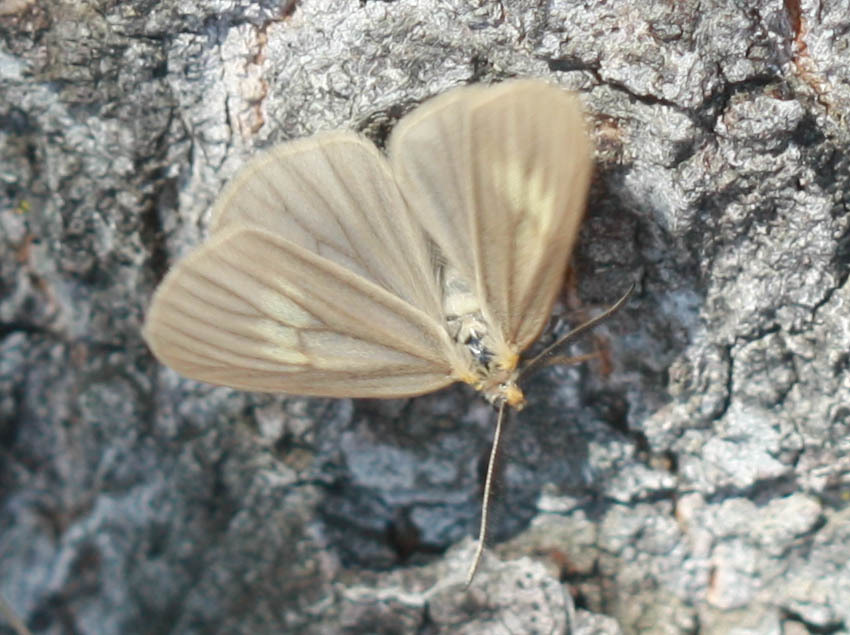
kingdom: Animalia
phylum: Arthropoda
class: Insecta
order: Lepidoptera
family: Notodontidae
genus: Phryganidia
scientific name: Phryganidia californica
